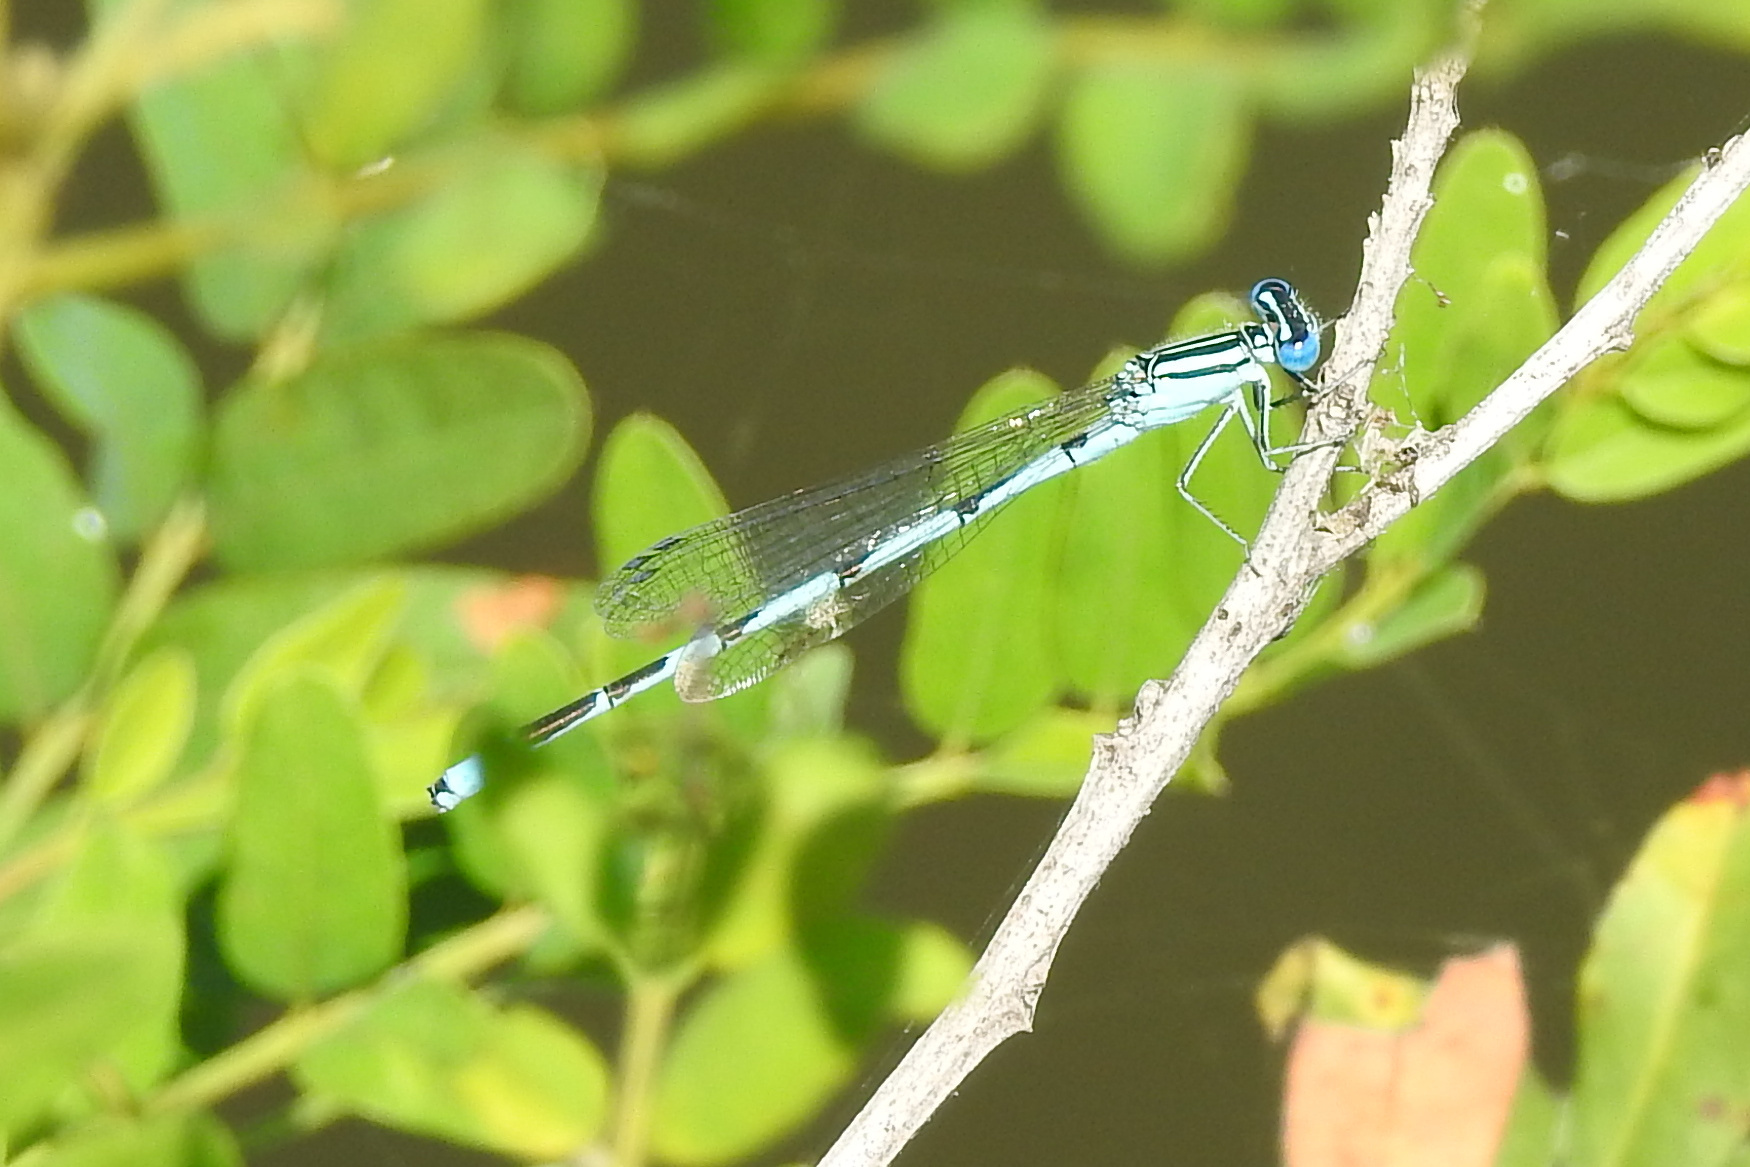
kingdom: Animalia
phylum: Arthropoda
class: Insecta
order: Odonata
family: Coenagrionidae
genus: Enallagma
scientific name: Enallagma durum
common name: Big bluet
